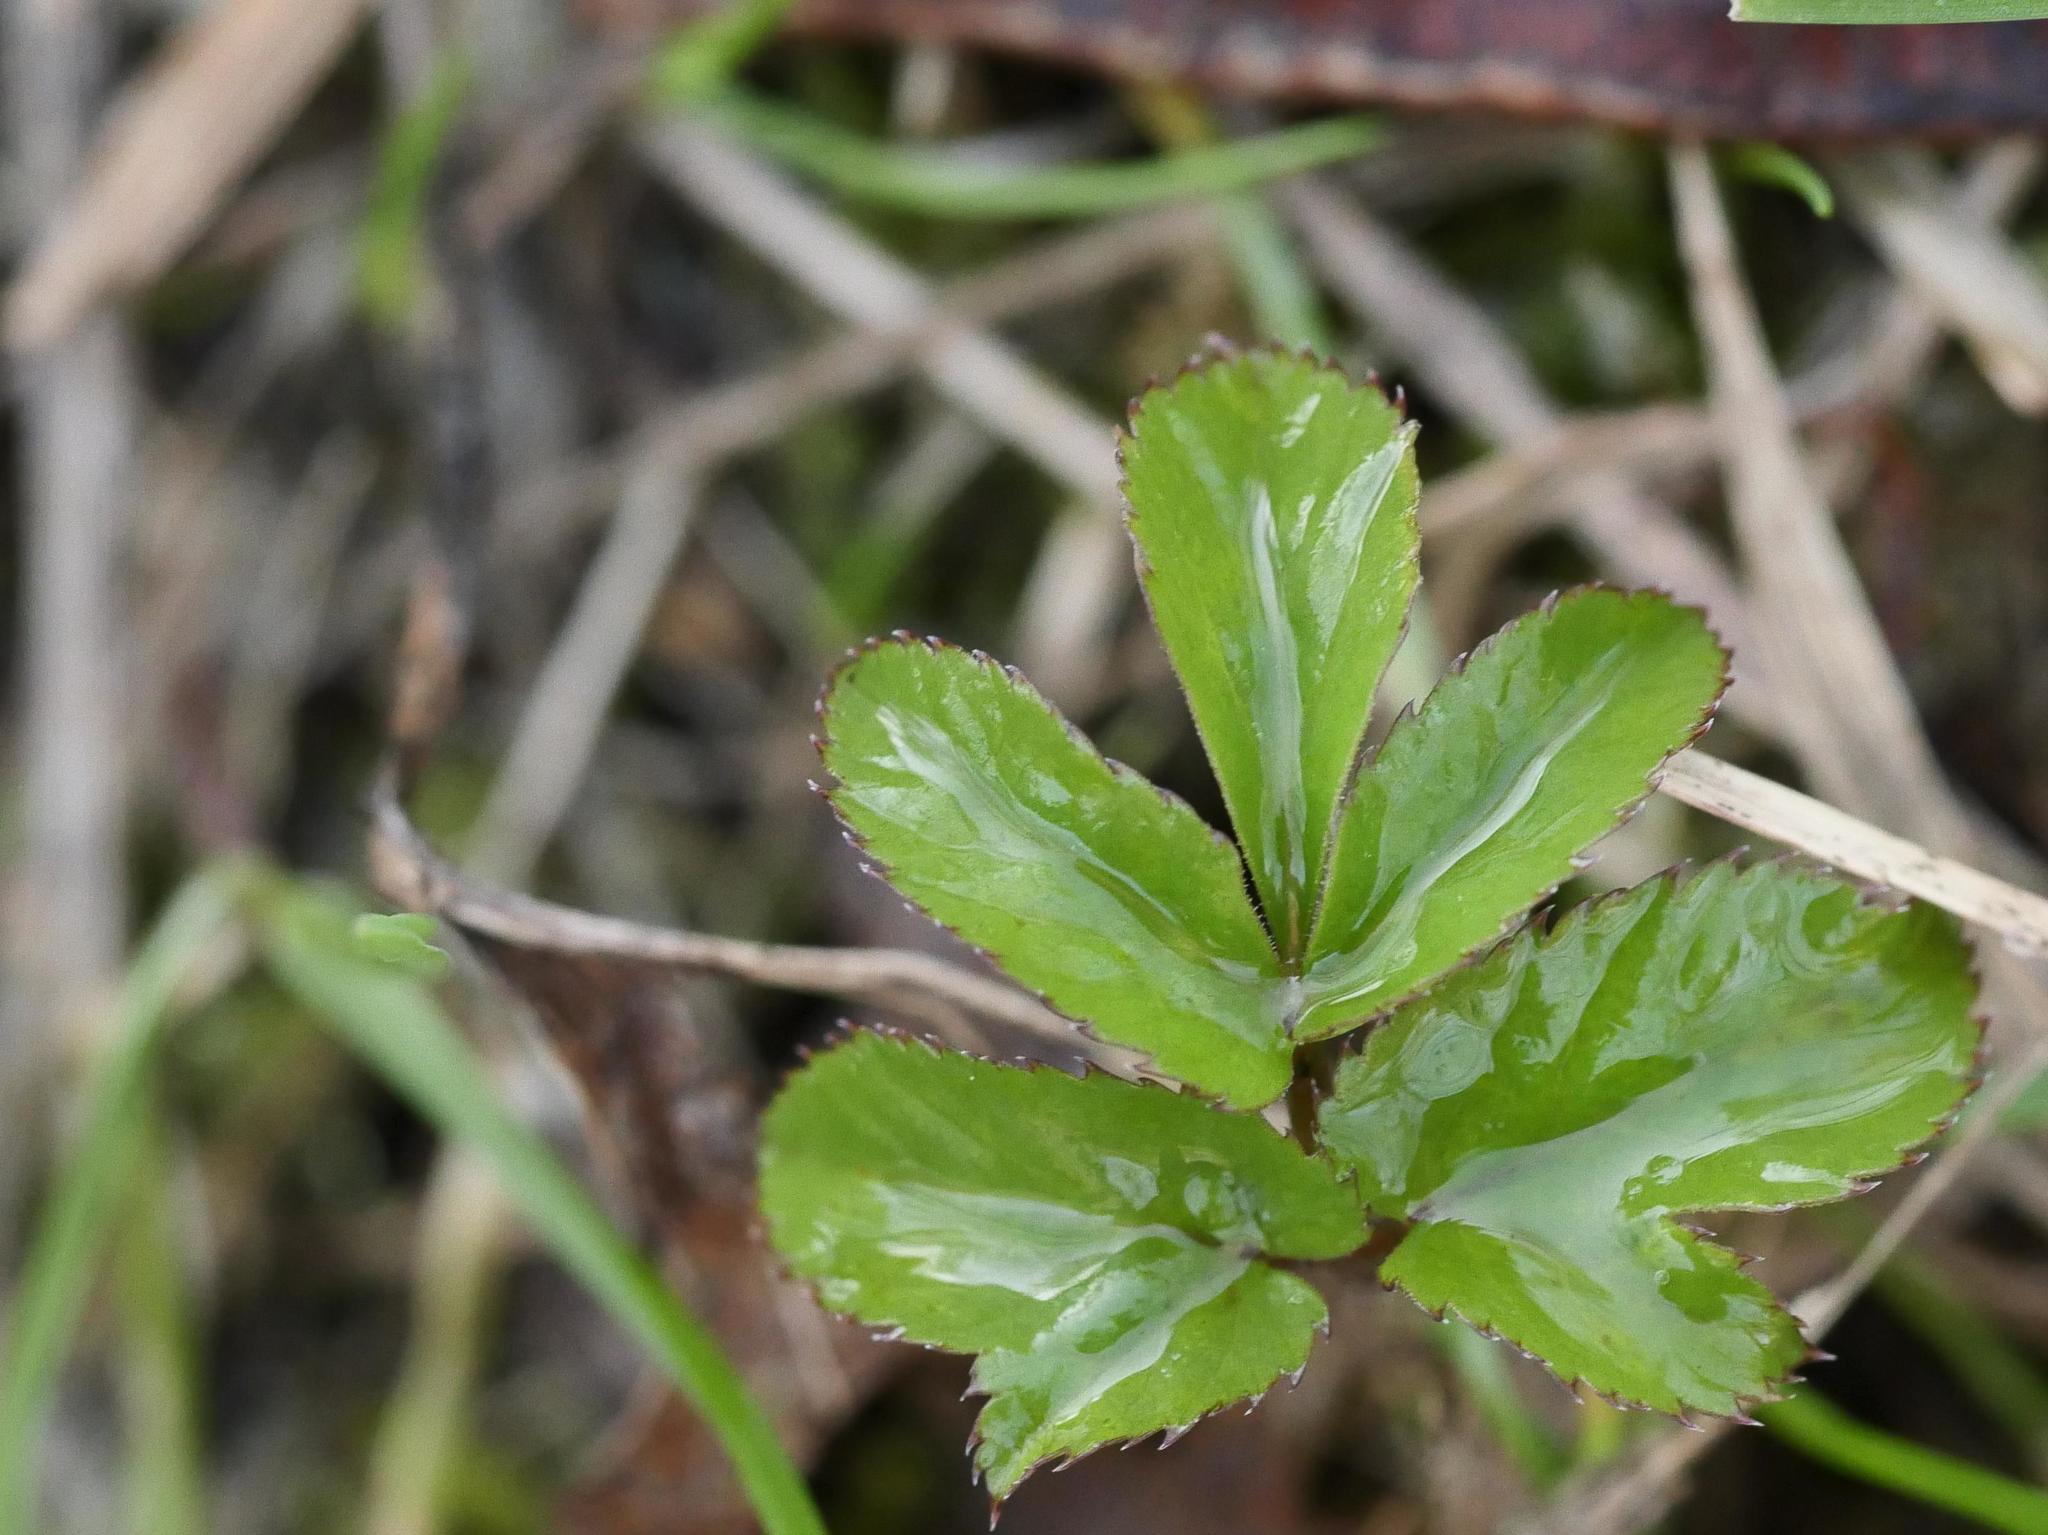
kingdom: Plantae
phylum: Tracheophyta
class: Magnoliopsida
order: Apiales
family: Apiaceae
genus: Aegopodium
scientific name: Aegopodium podagraria
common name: Ground-elder
